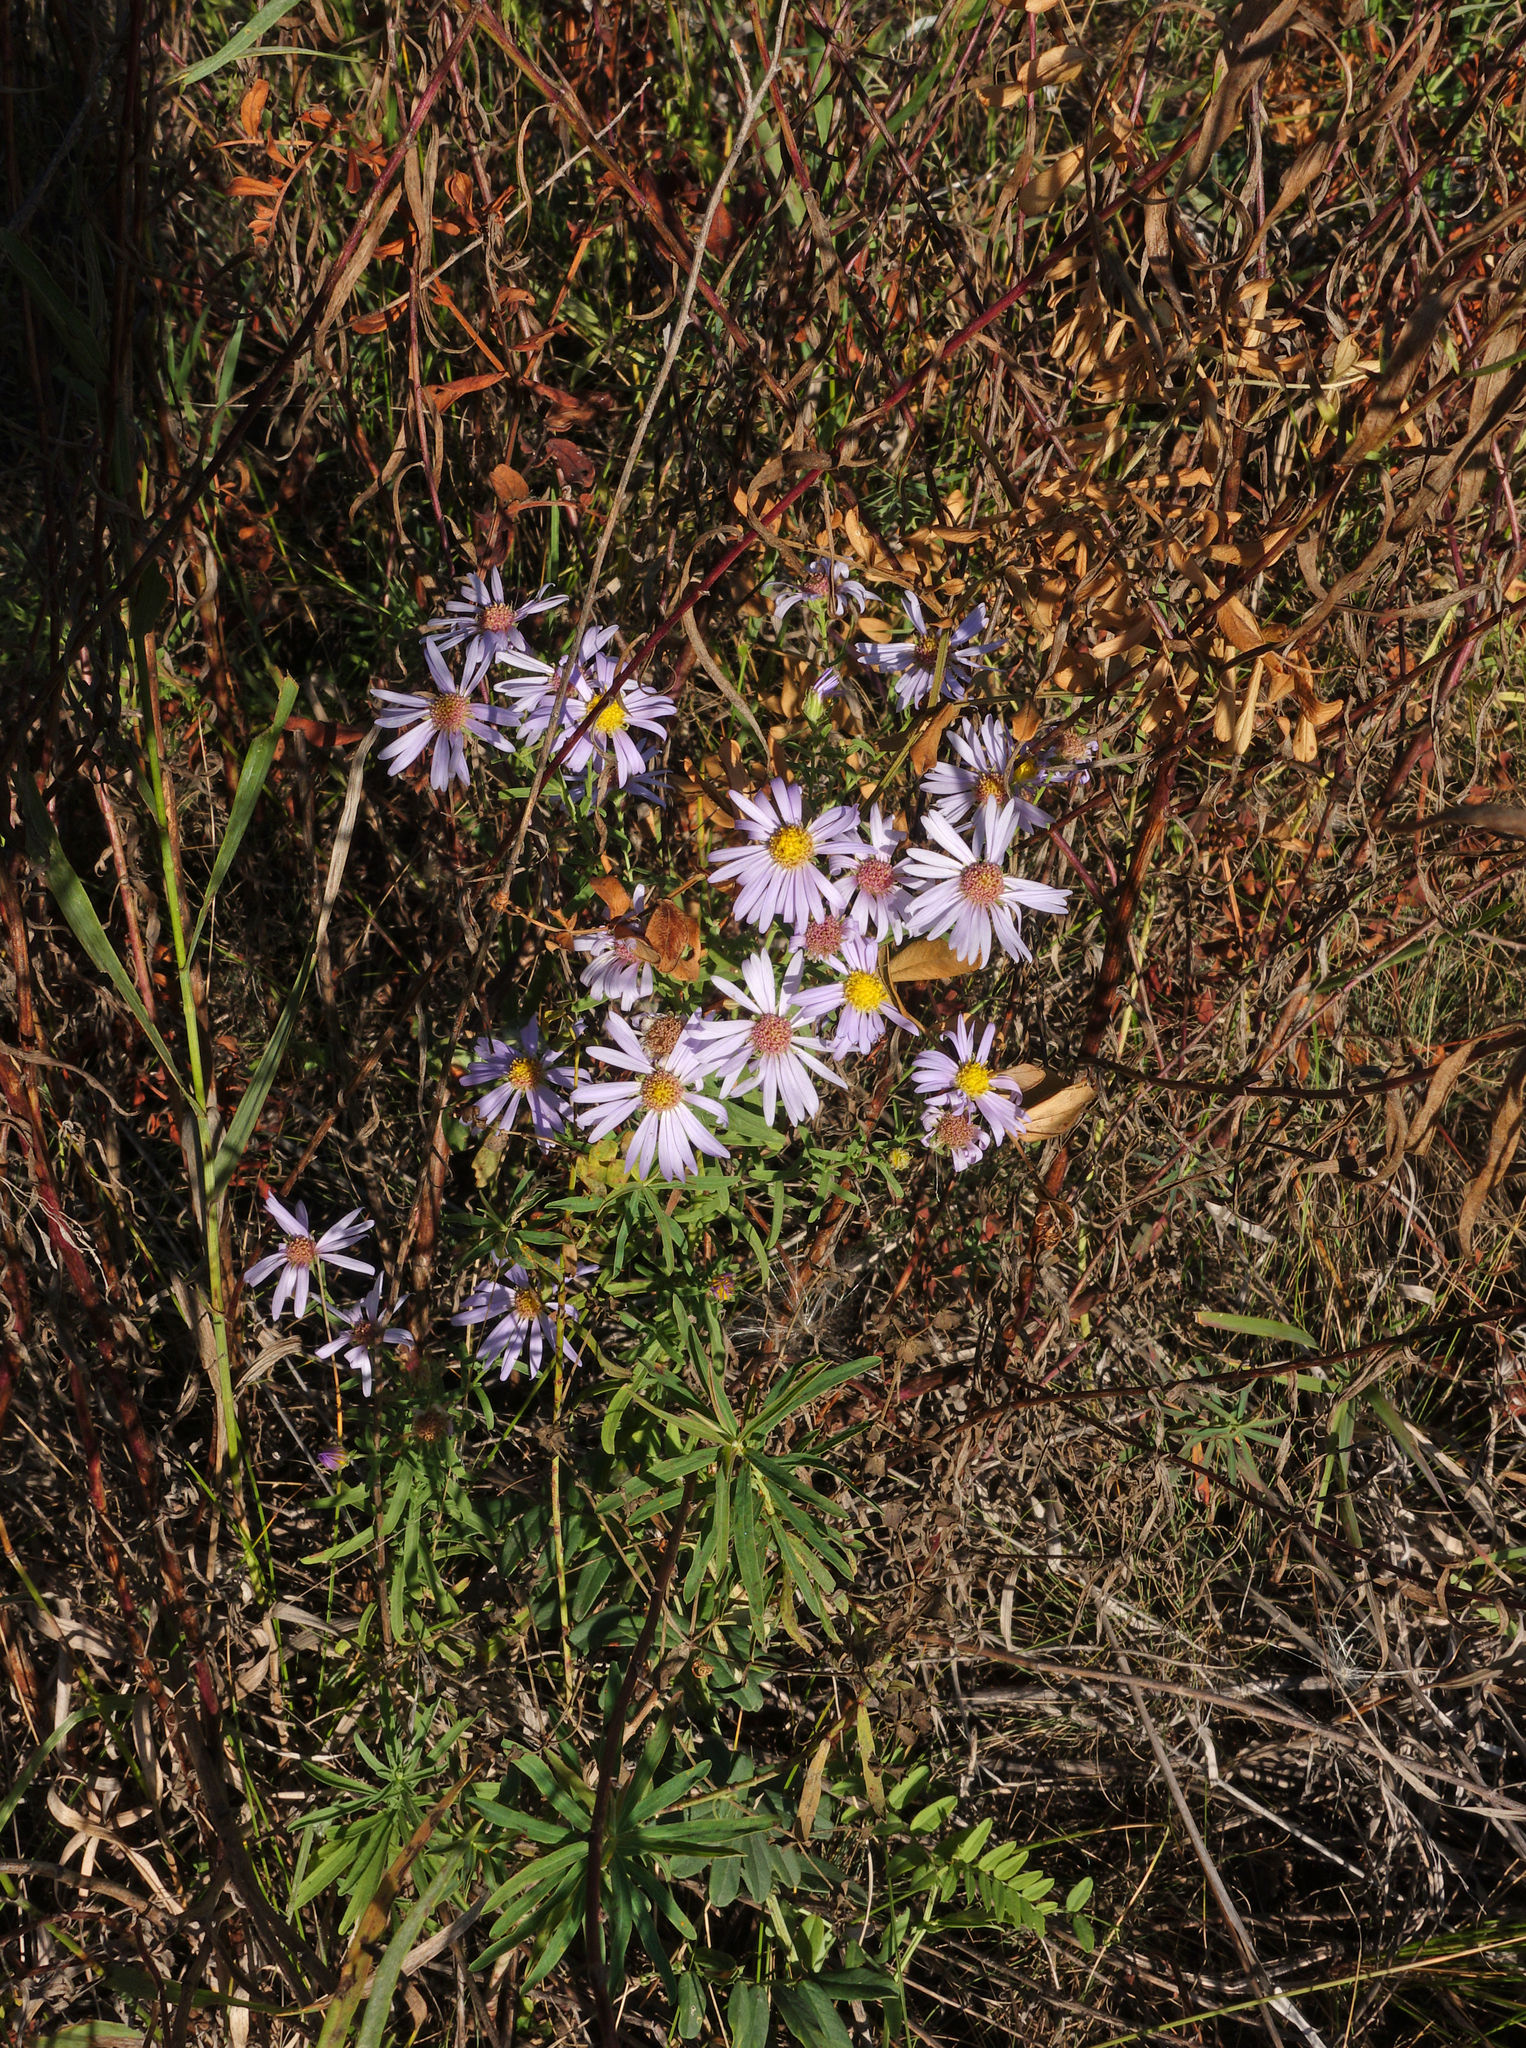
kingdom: Plantae
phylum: Tracheophyta
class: Magnoliopsida
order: Asterales
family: Asteraceae
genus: Tripolium
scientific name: Tripolium pannonicum
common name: Sea aster
